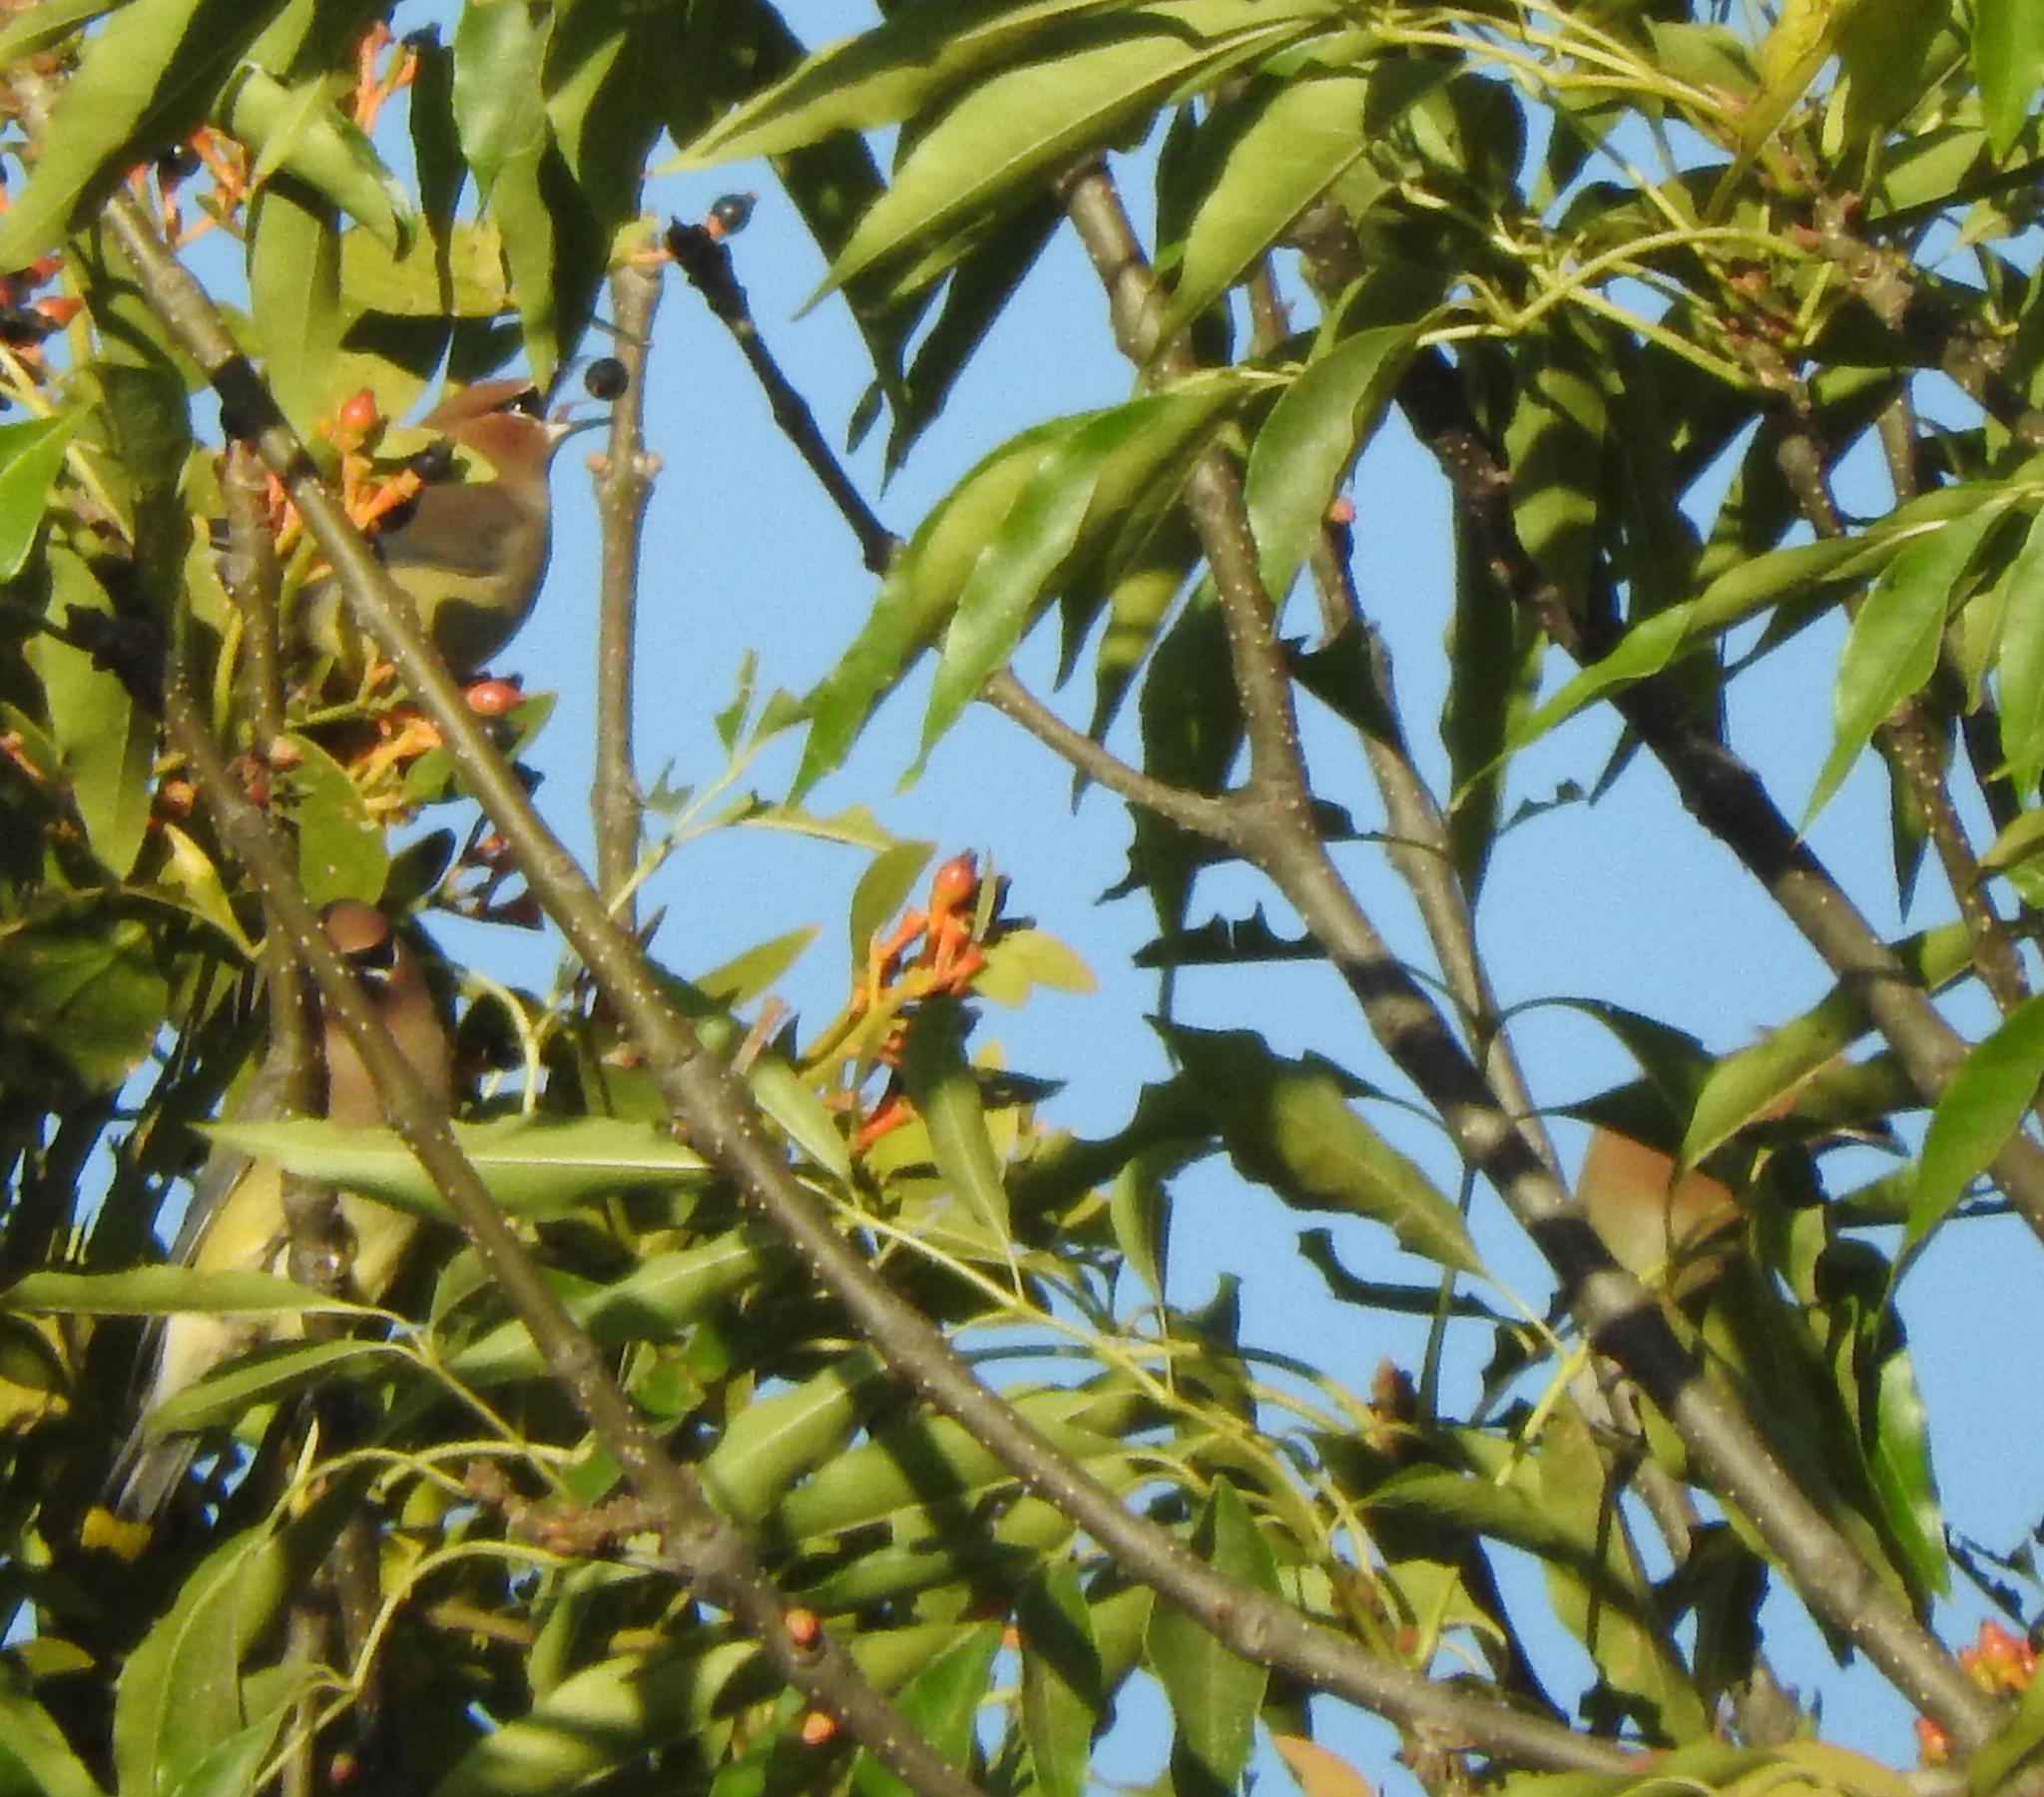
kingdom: Animalia
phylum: Chordata
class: Aves
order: Passeriformes
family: Bombycillidae
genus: Bombycilla
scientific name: Bombycilla cedrorum
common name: Cedar waxwing
